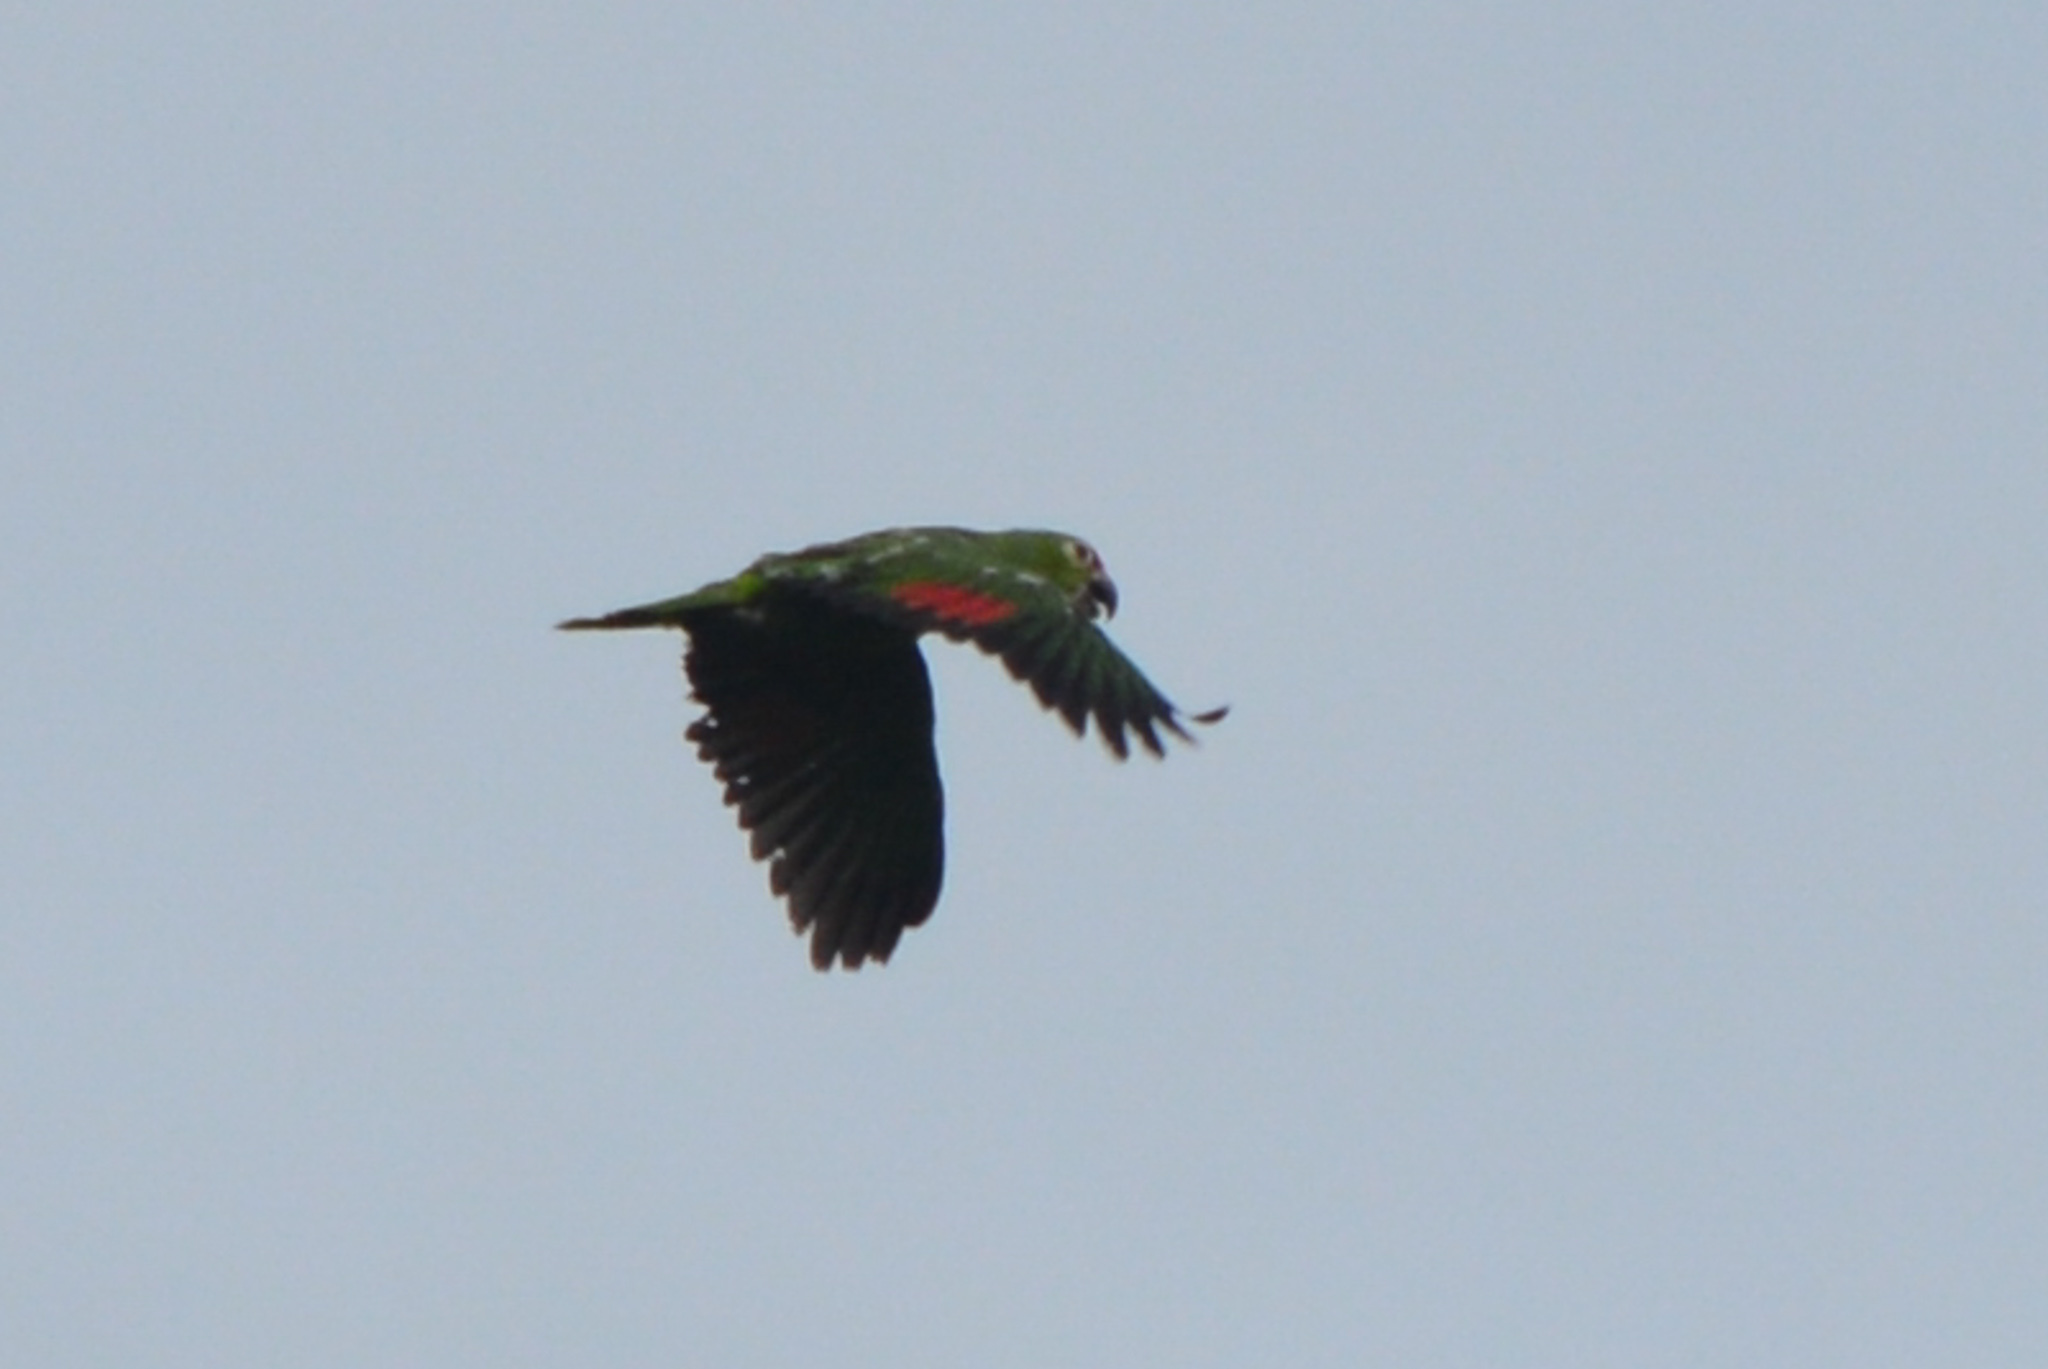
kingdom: Animalia
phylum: Chordata
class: Aves
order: Psittaciformes
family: Psittacidae
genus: Amazona
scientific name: Amazona autumnalis
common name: Red-lored amazon
